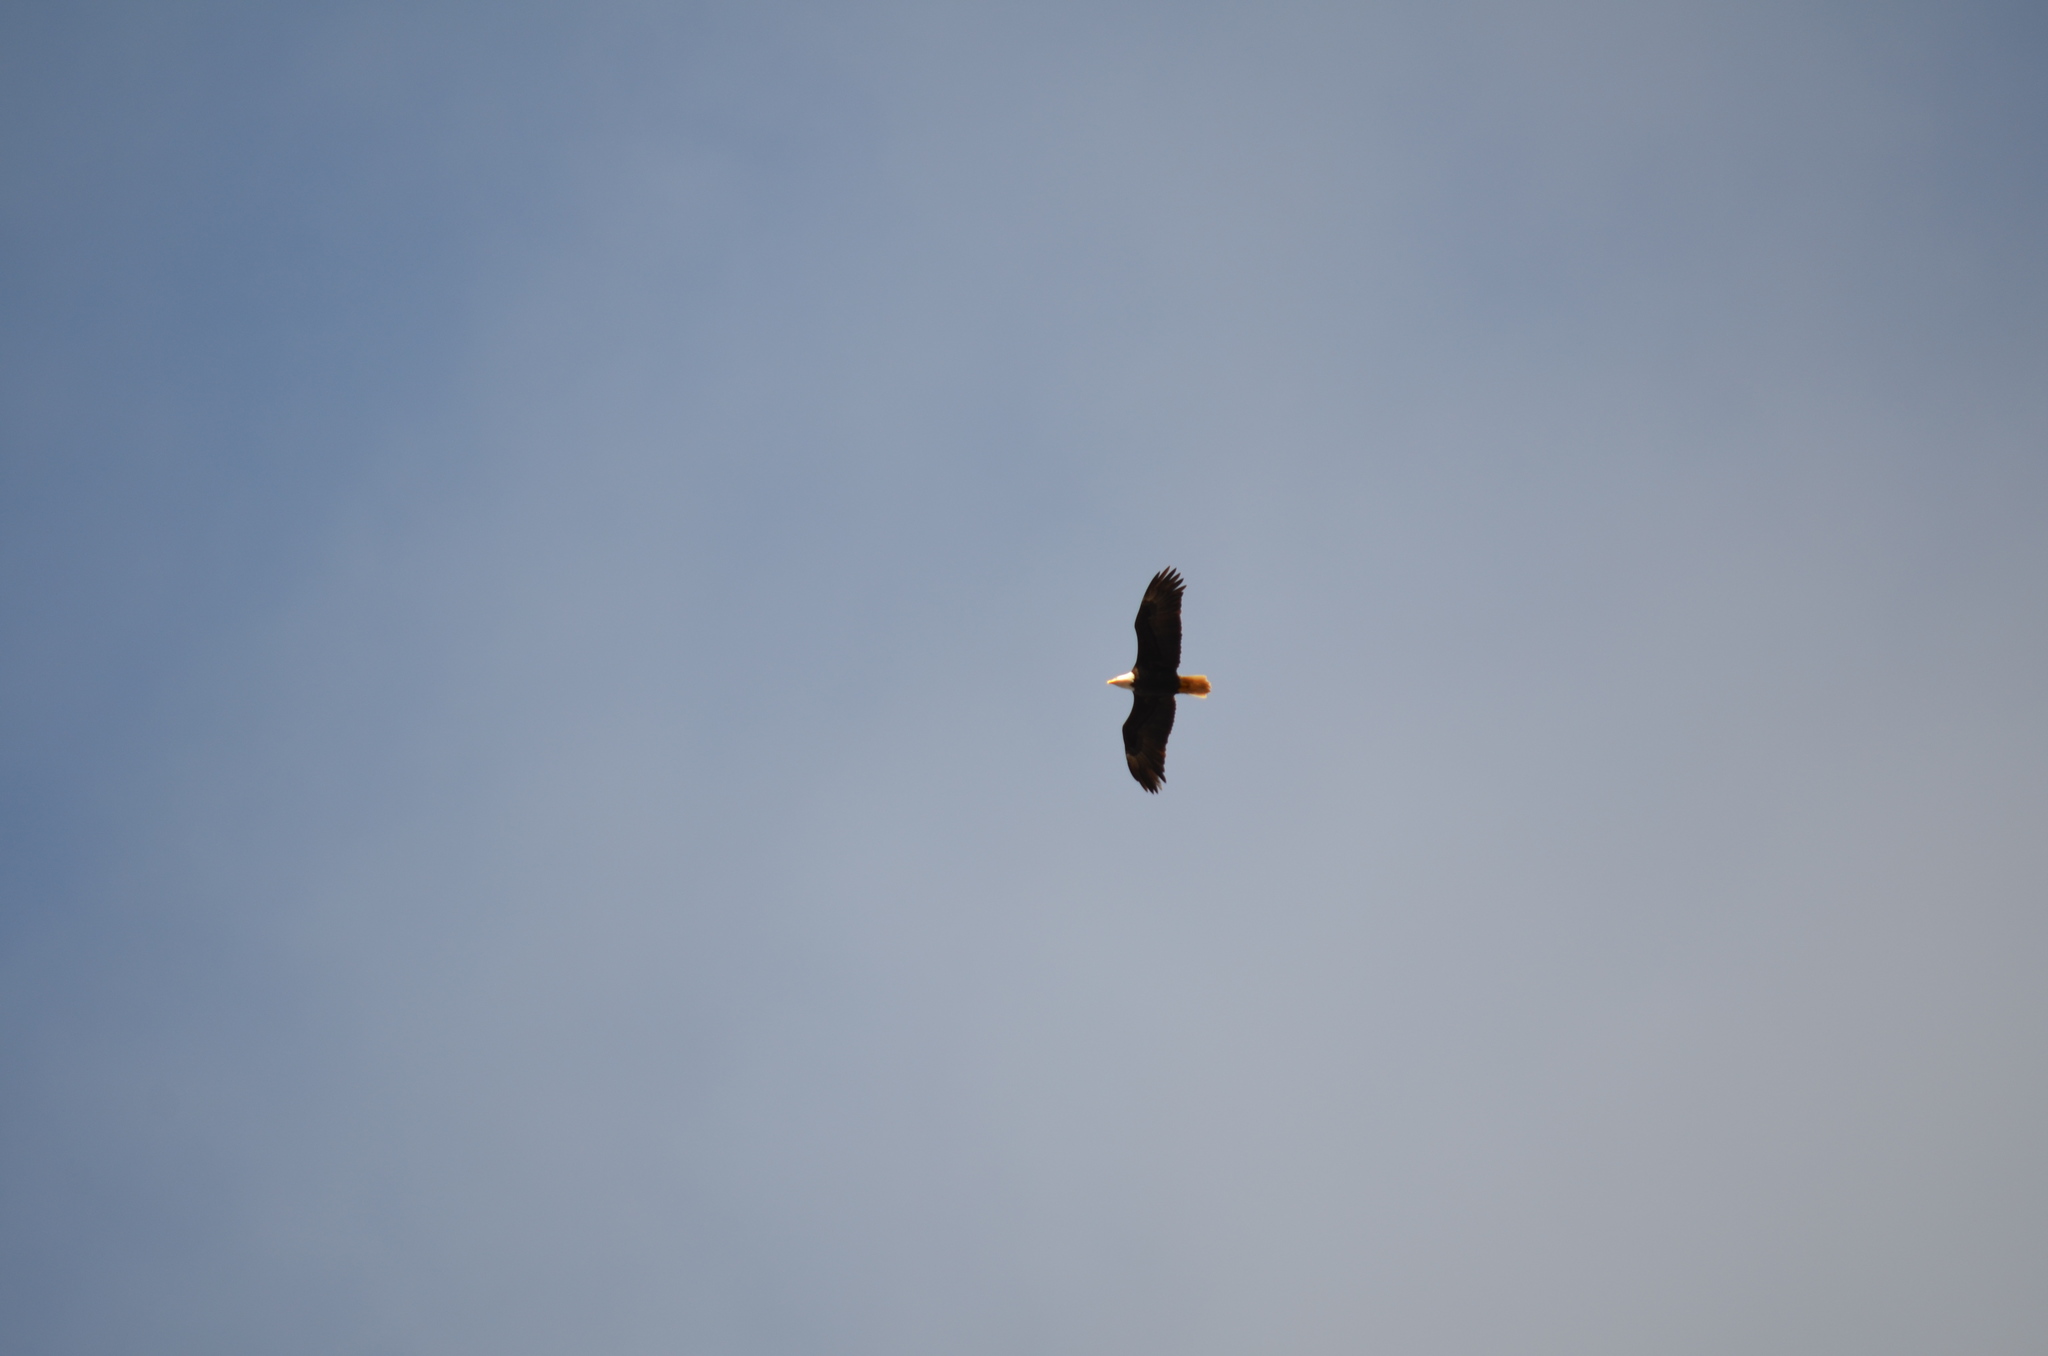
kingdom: Animalia
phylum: Chordata
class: Aves
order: Accipitriformes
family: Accipitridae
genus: Haliaeetus
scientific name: Haliaeetus leucocephalus
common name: Bald eagle
